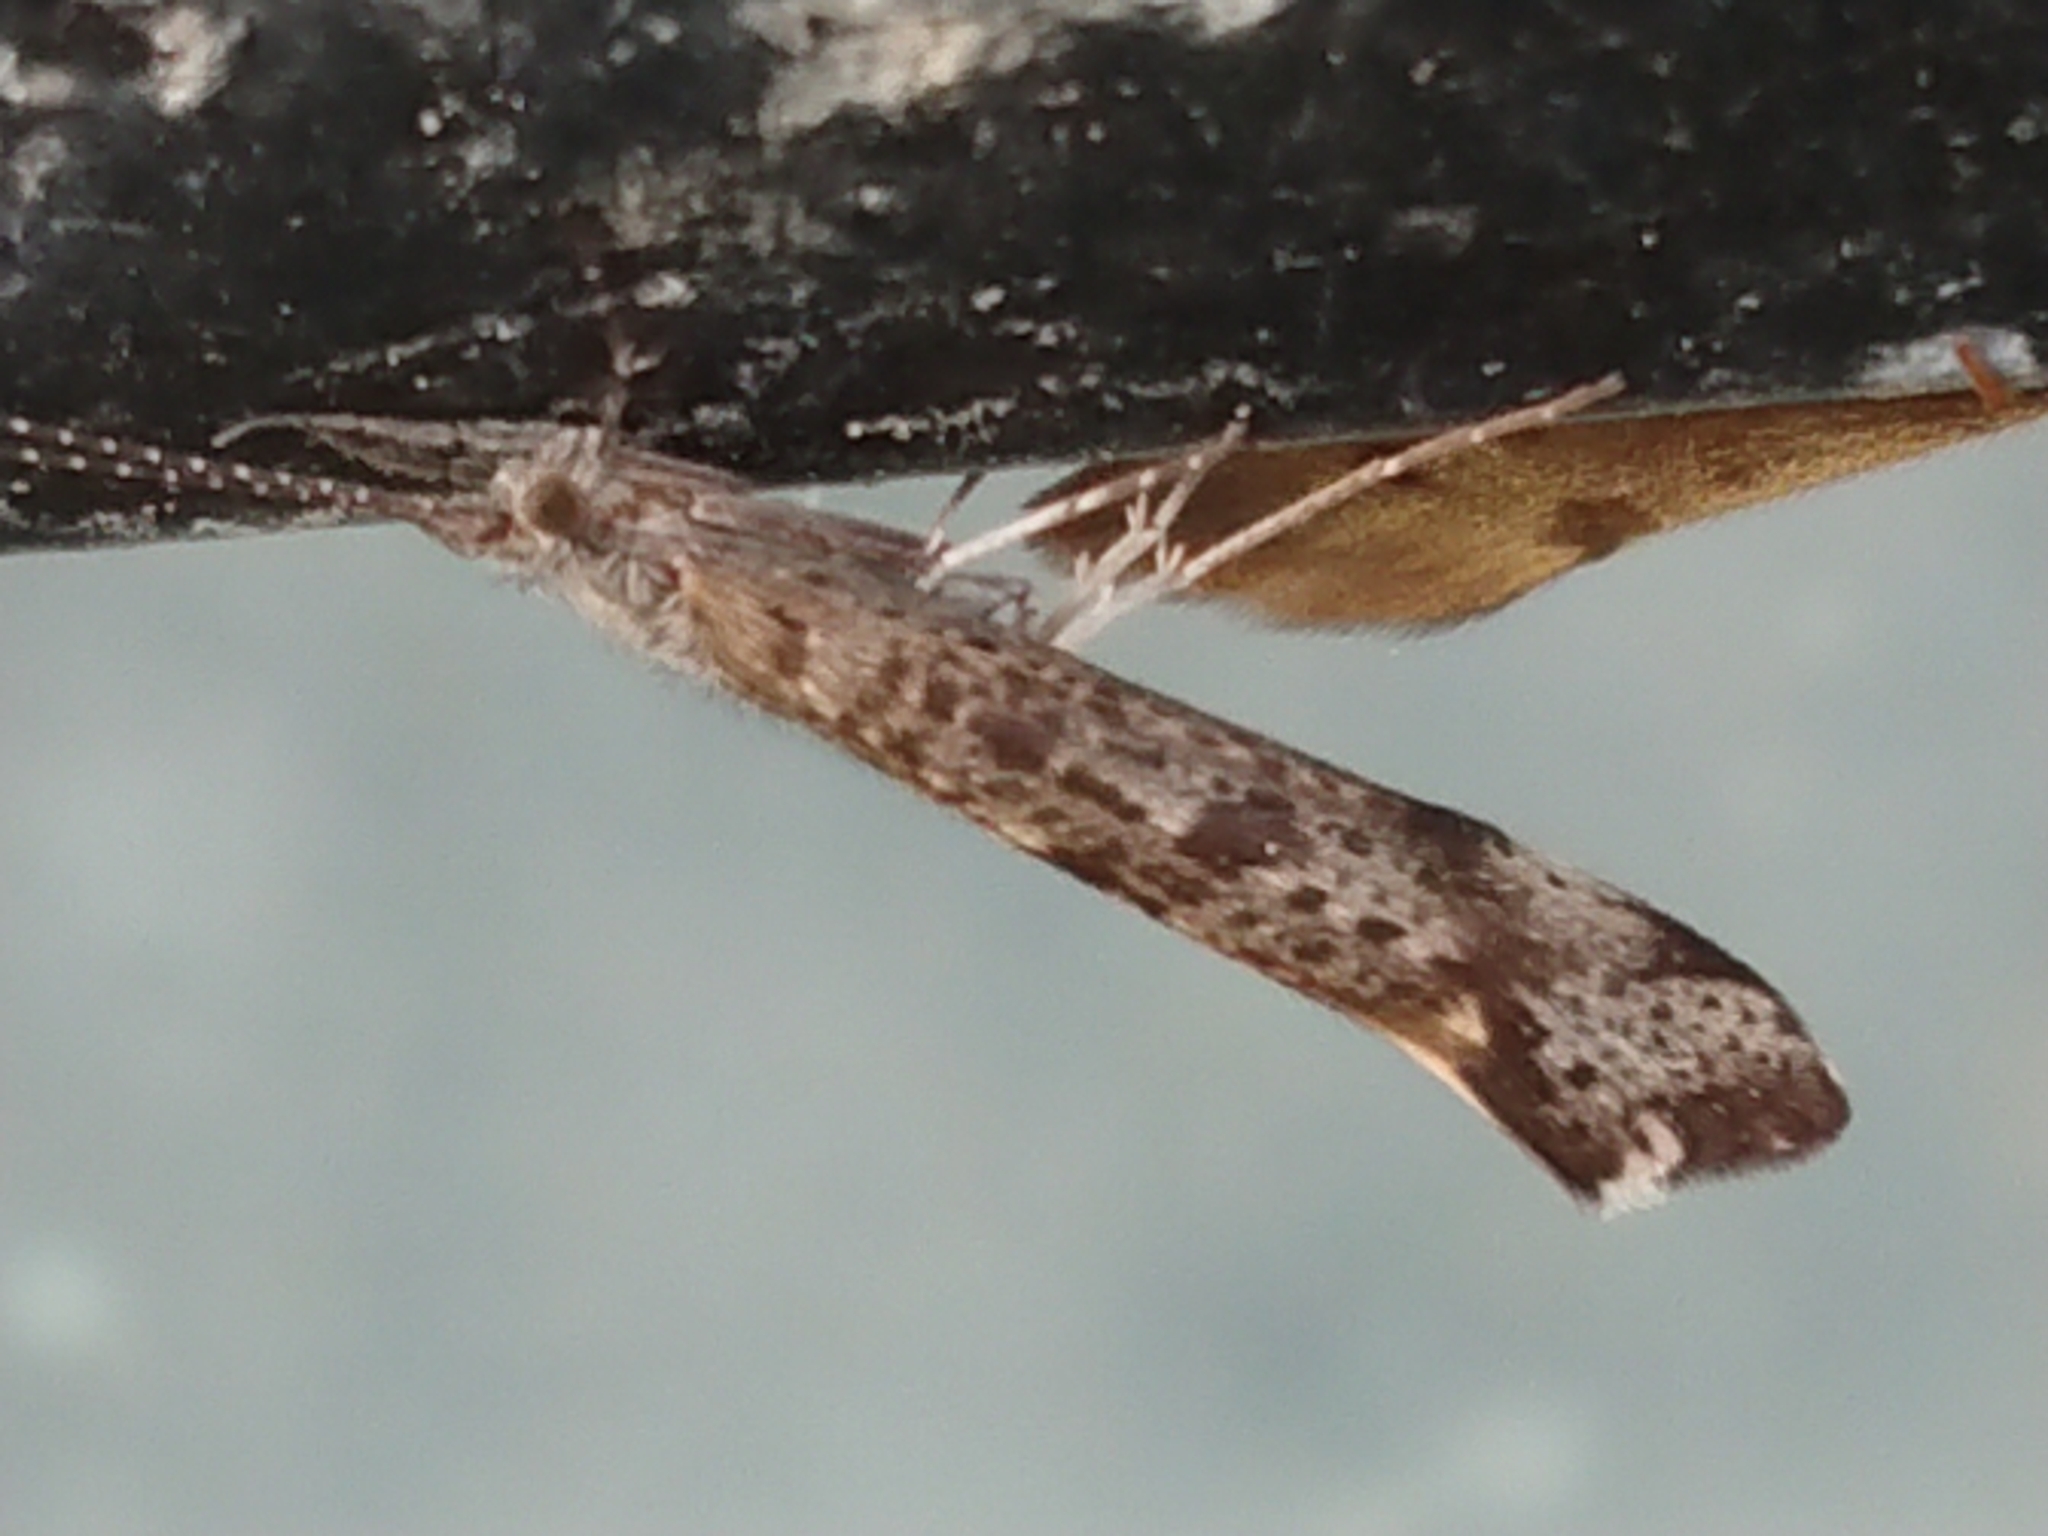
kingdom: Animalia
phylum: Arthropoda
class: Insecta
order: Trichoptera
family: Leptoceridae
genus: Hudsonema
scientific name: Hudsonema amabile
